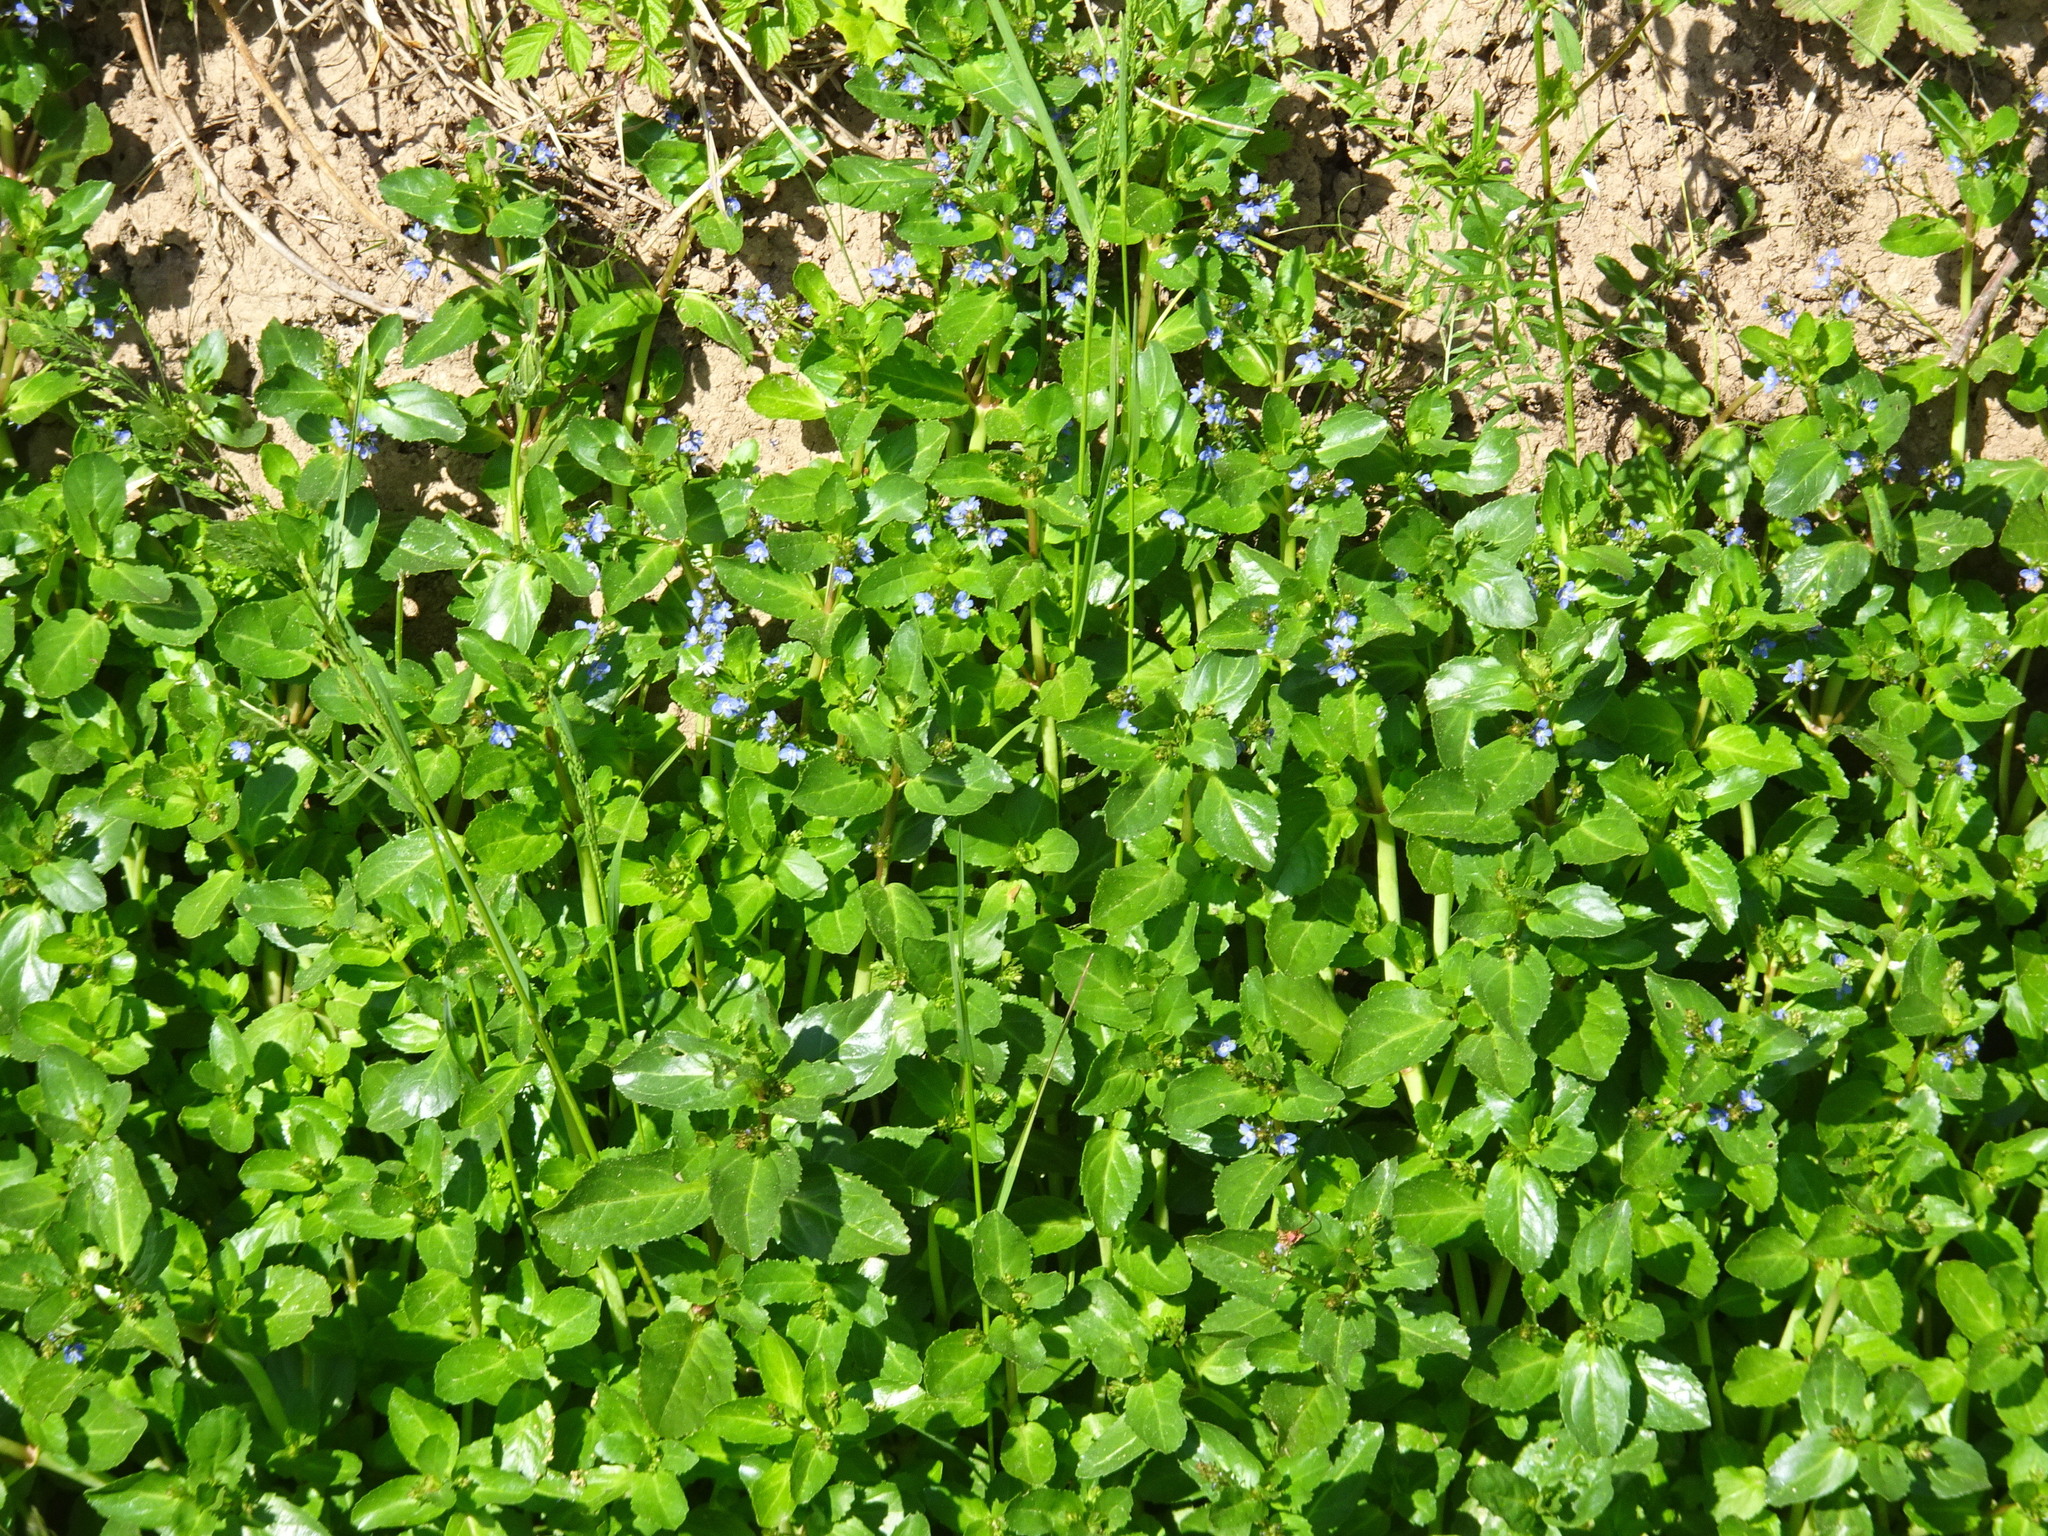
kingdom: Plantae
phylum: Tracheophyta
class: Magnoliopsida
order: Lamiales
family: Plantaginaceae
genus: Veronica
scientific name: Veronica beccabunga
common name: Brooklime
